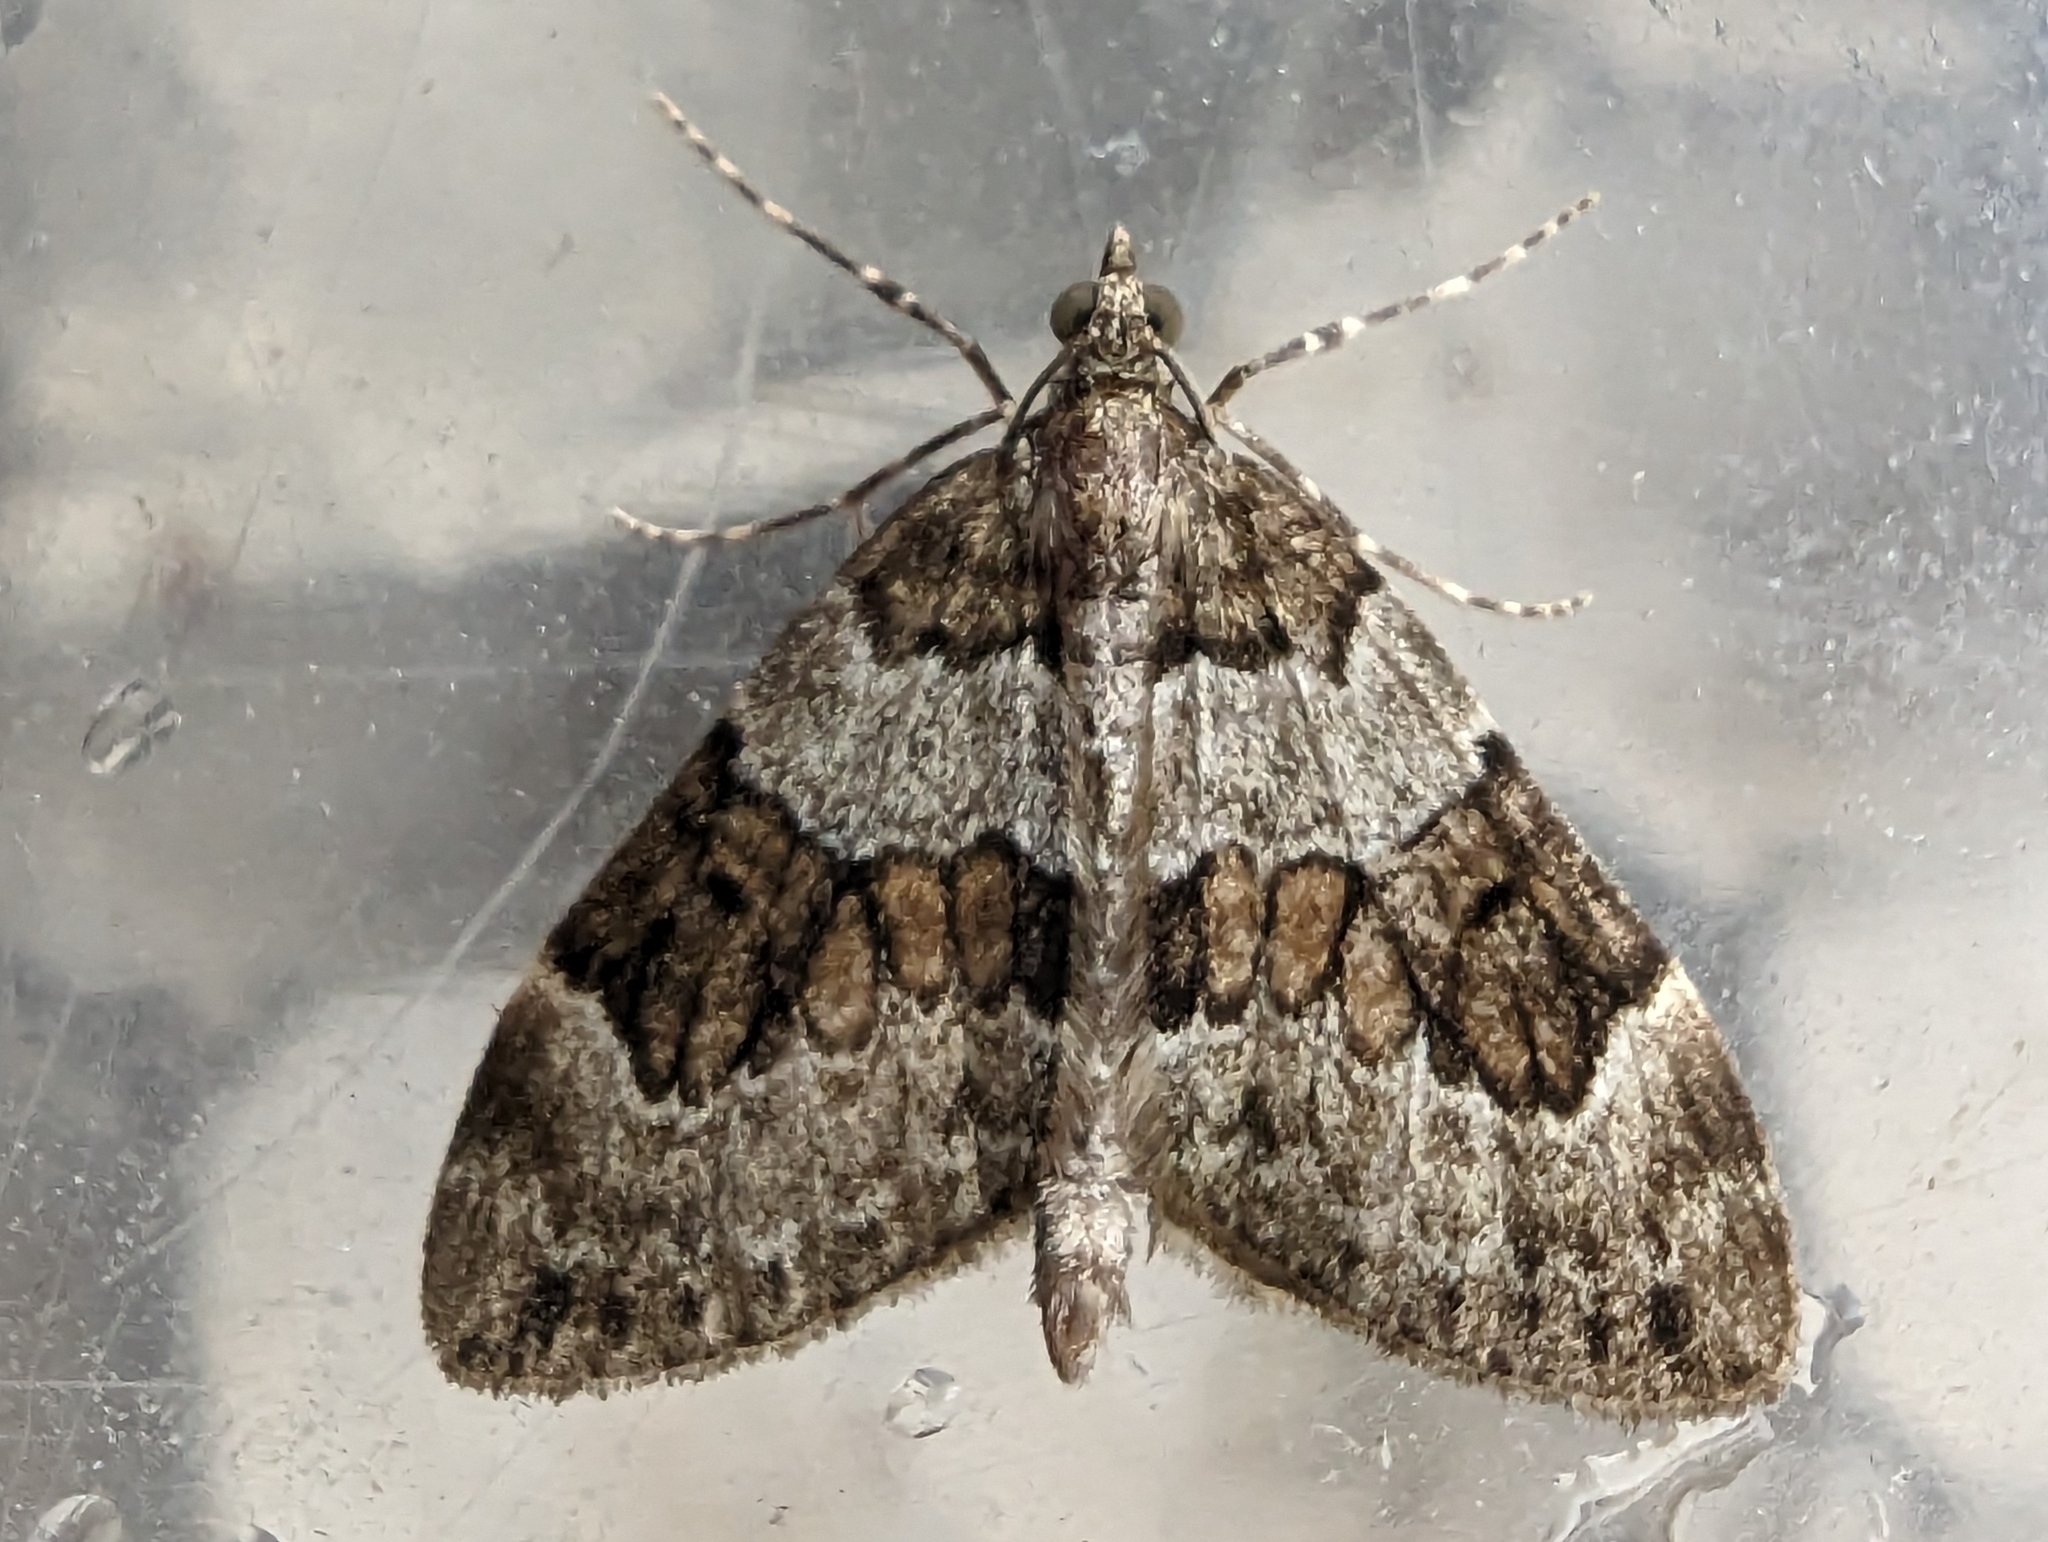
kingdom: Animalia
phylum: Arthropoda
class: Insecta
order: Lepidoptera
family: Geometridae
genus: Thera
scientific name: Thera britannica
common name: Spruce carpet
